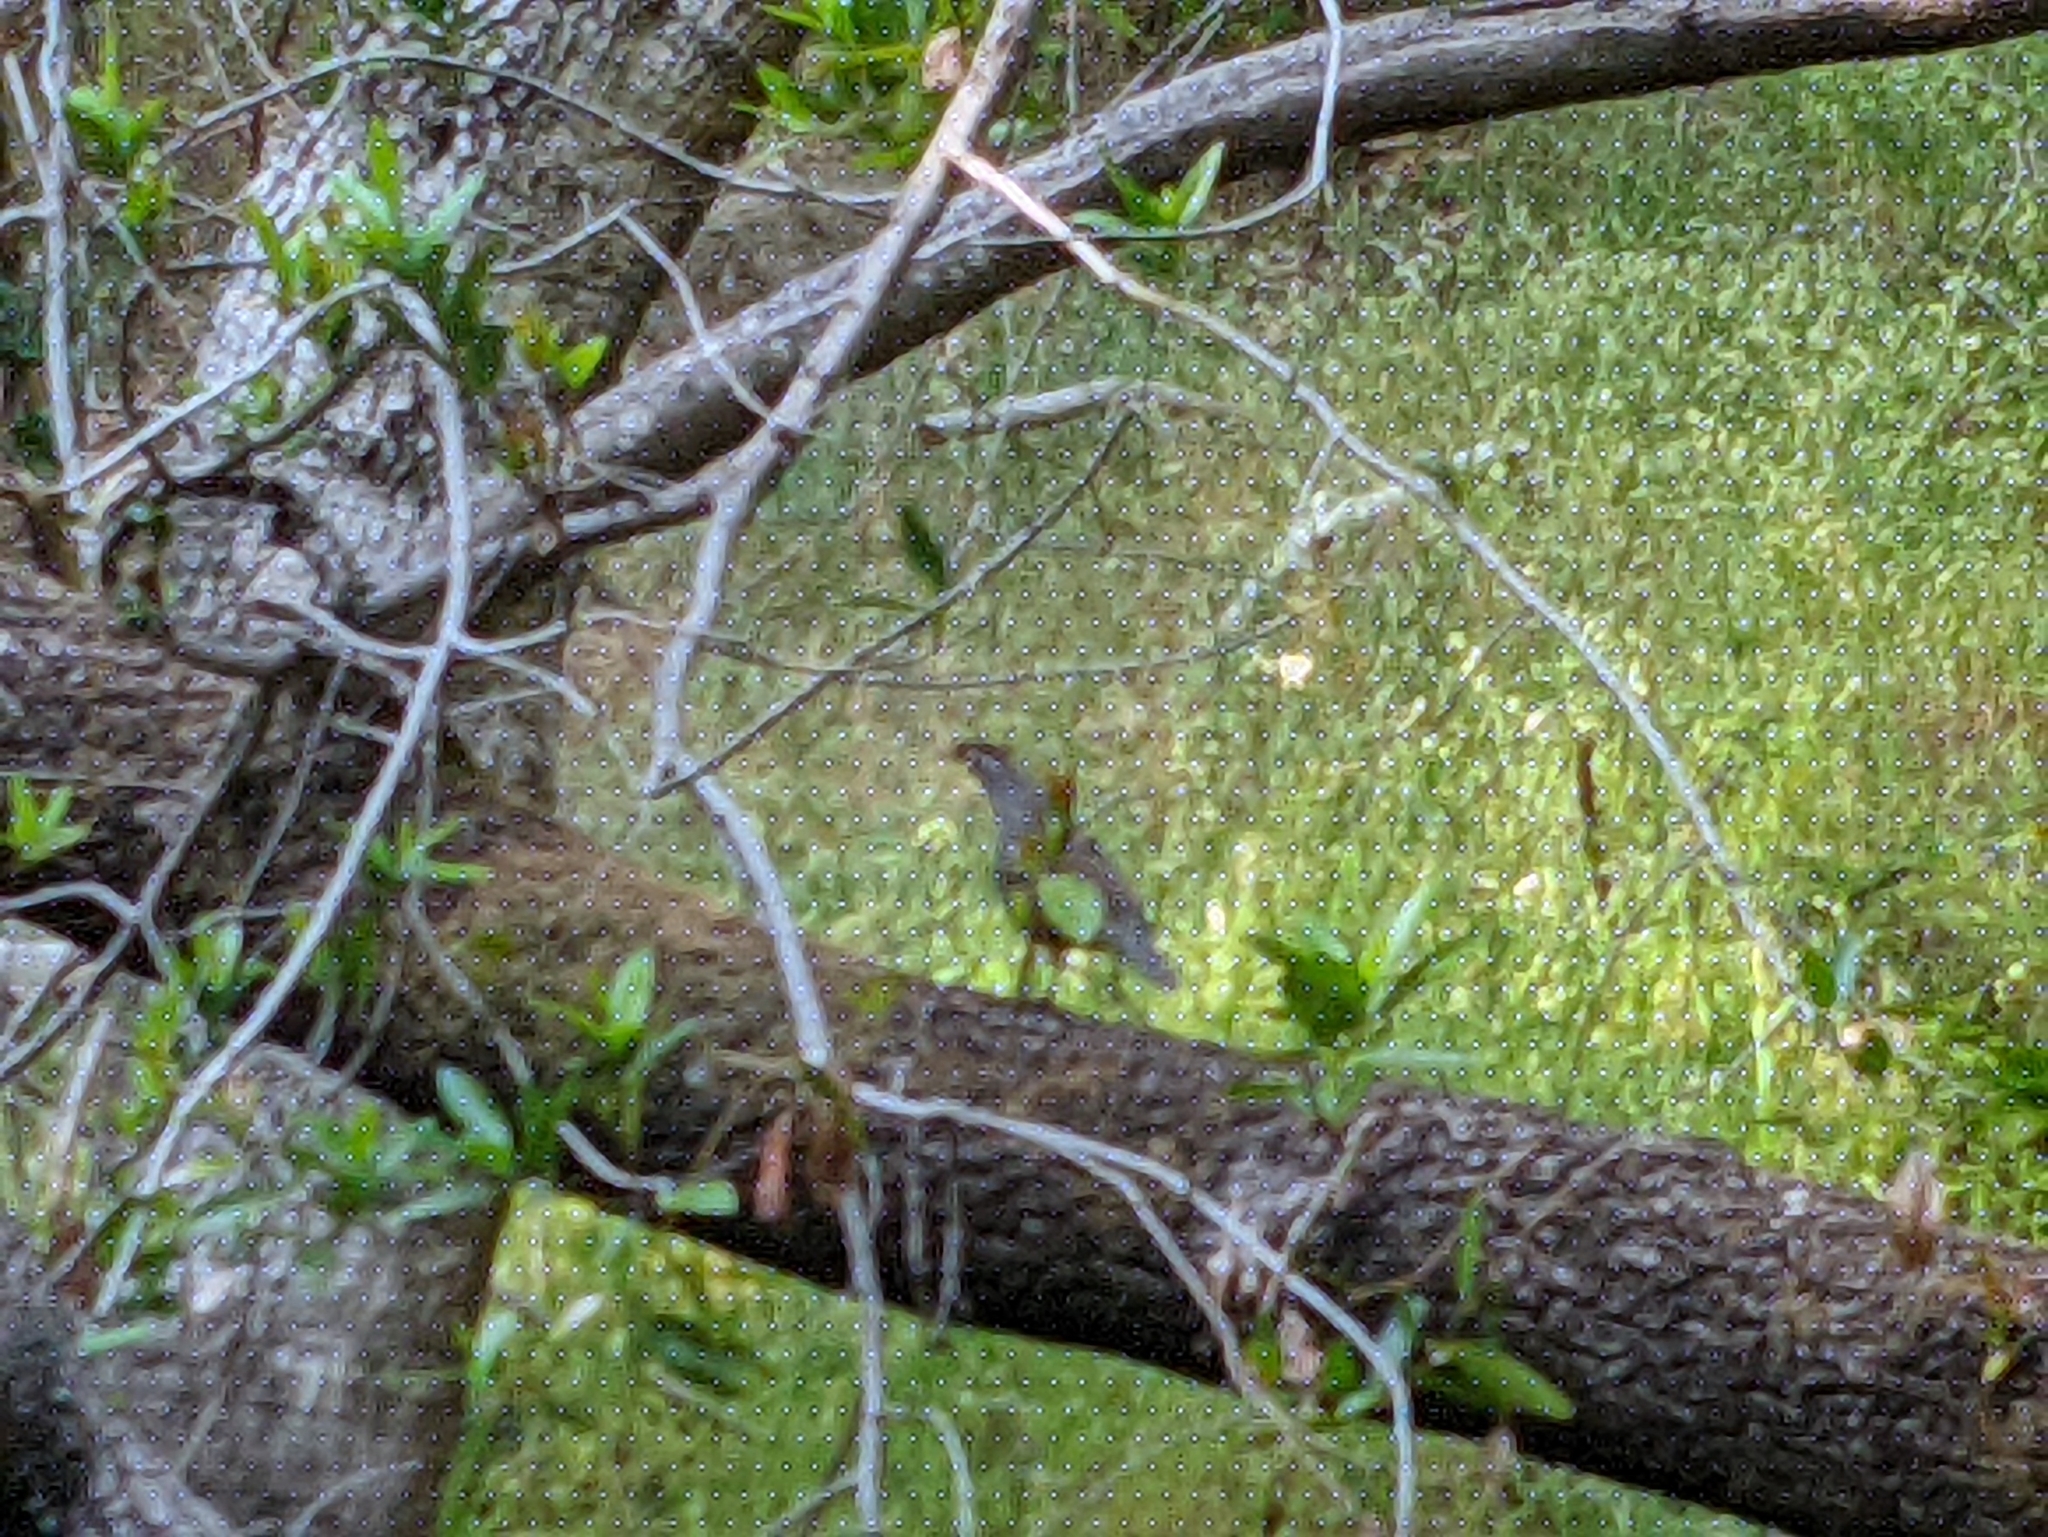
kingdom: Animalia
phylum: Chordata
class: Aves
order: Galliformes
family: Odontophoridae
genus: Callipepla
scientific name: Callipepla californica
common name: California quail
